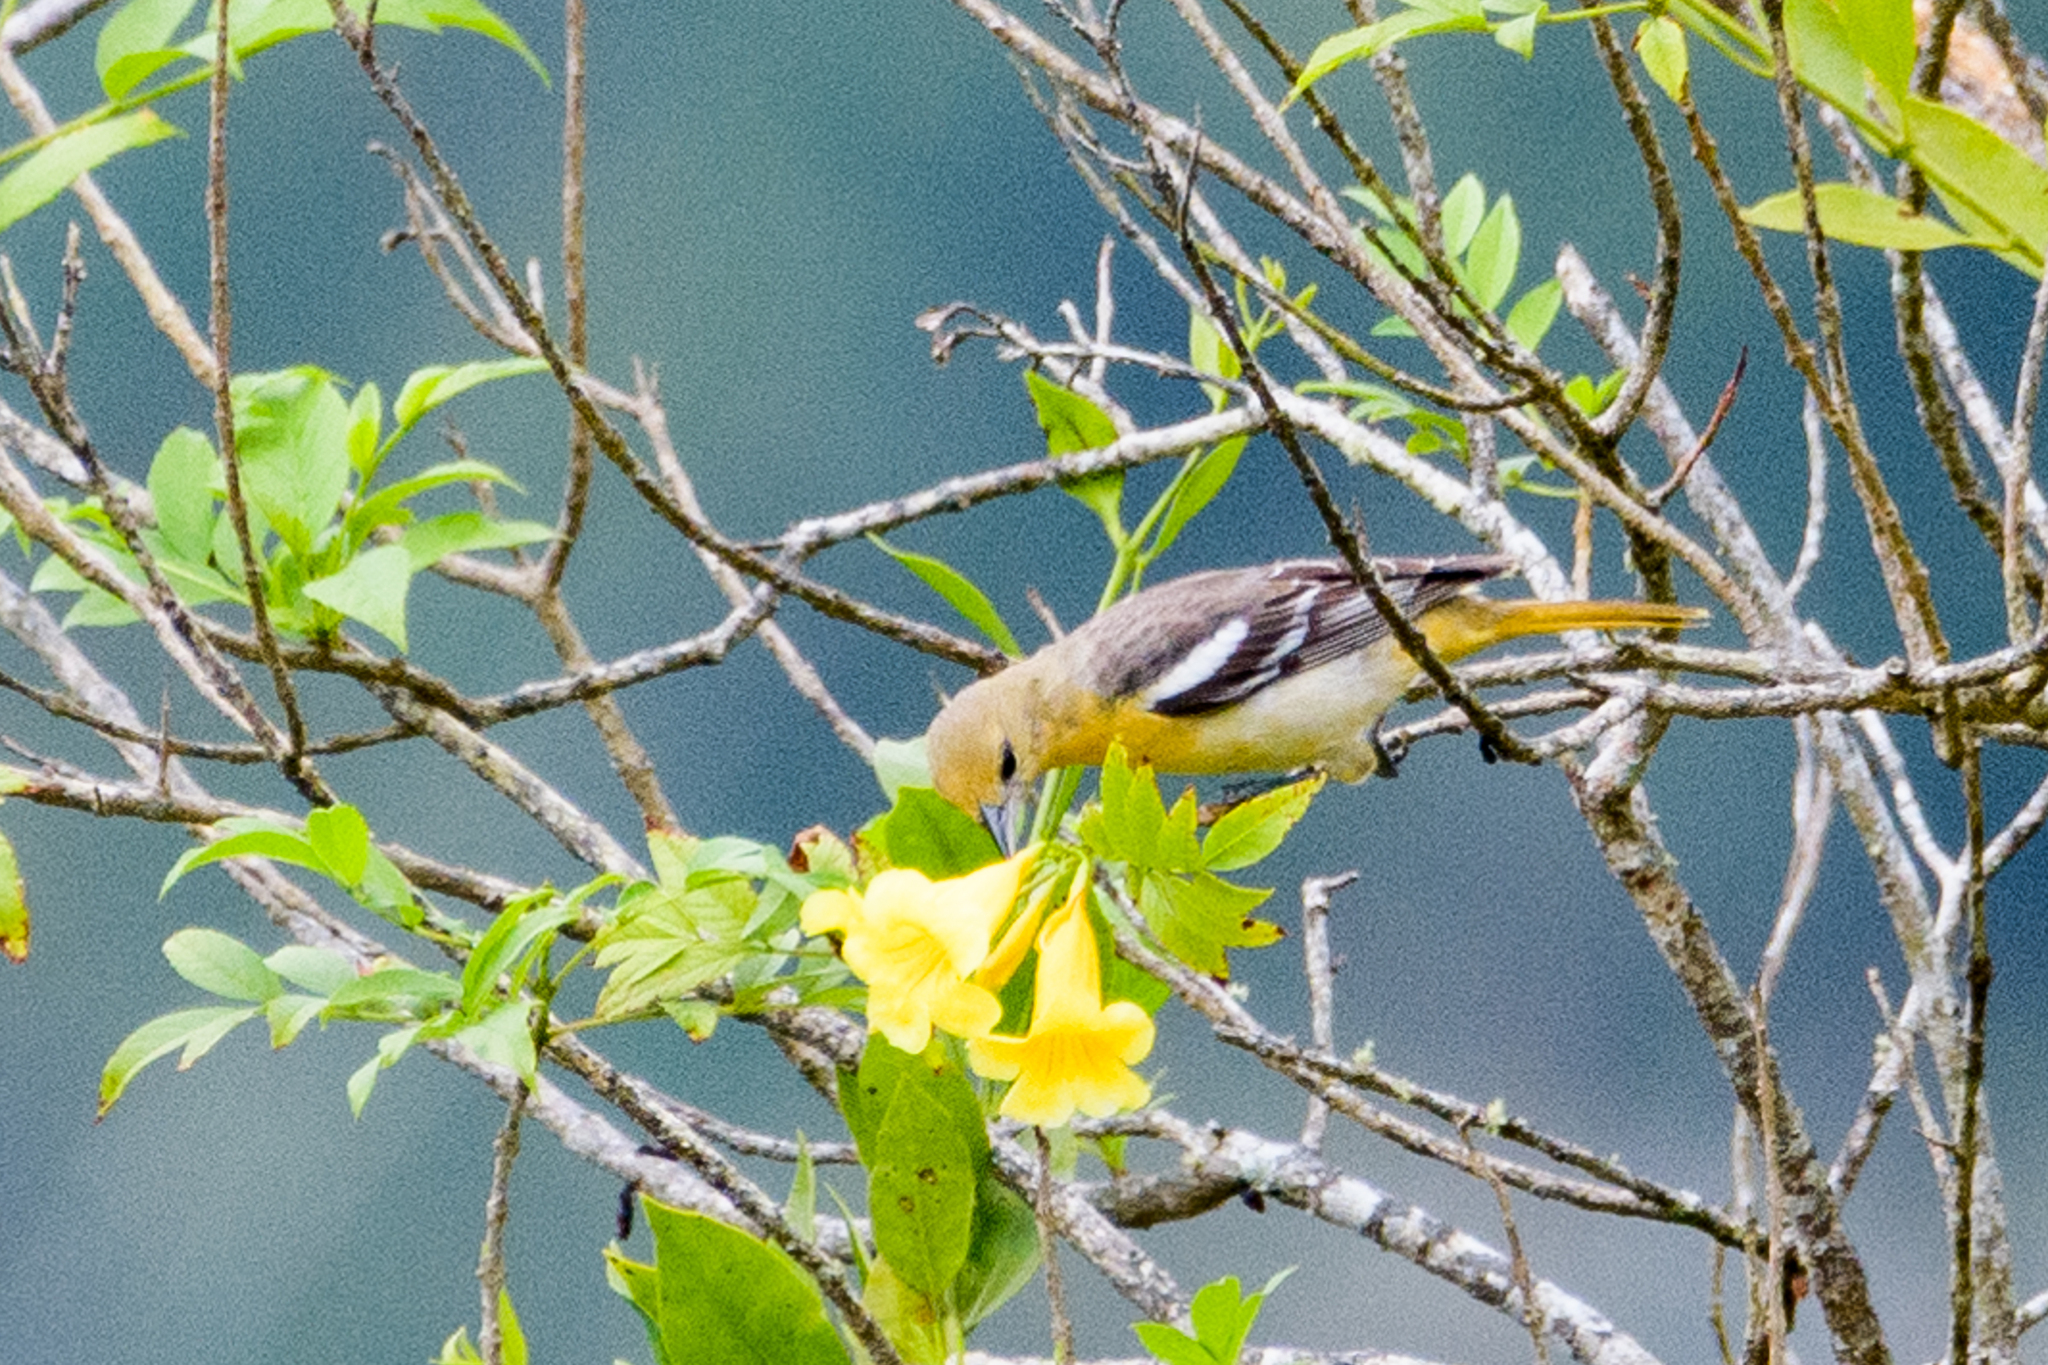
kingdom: Animalia
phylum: Chordata
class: Aves
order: Passeriformes
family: Icteridae
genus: Icterus
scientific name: Icterus galbula
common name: Baltimore oriole
